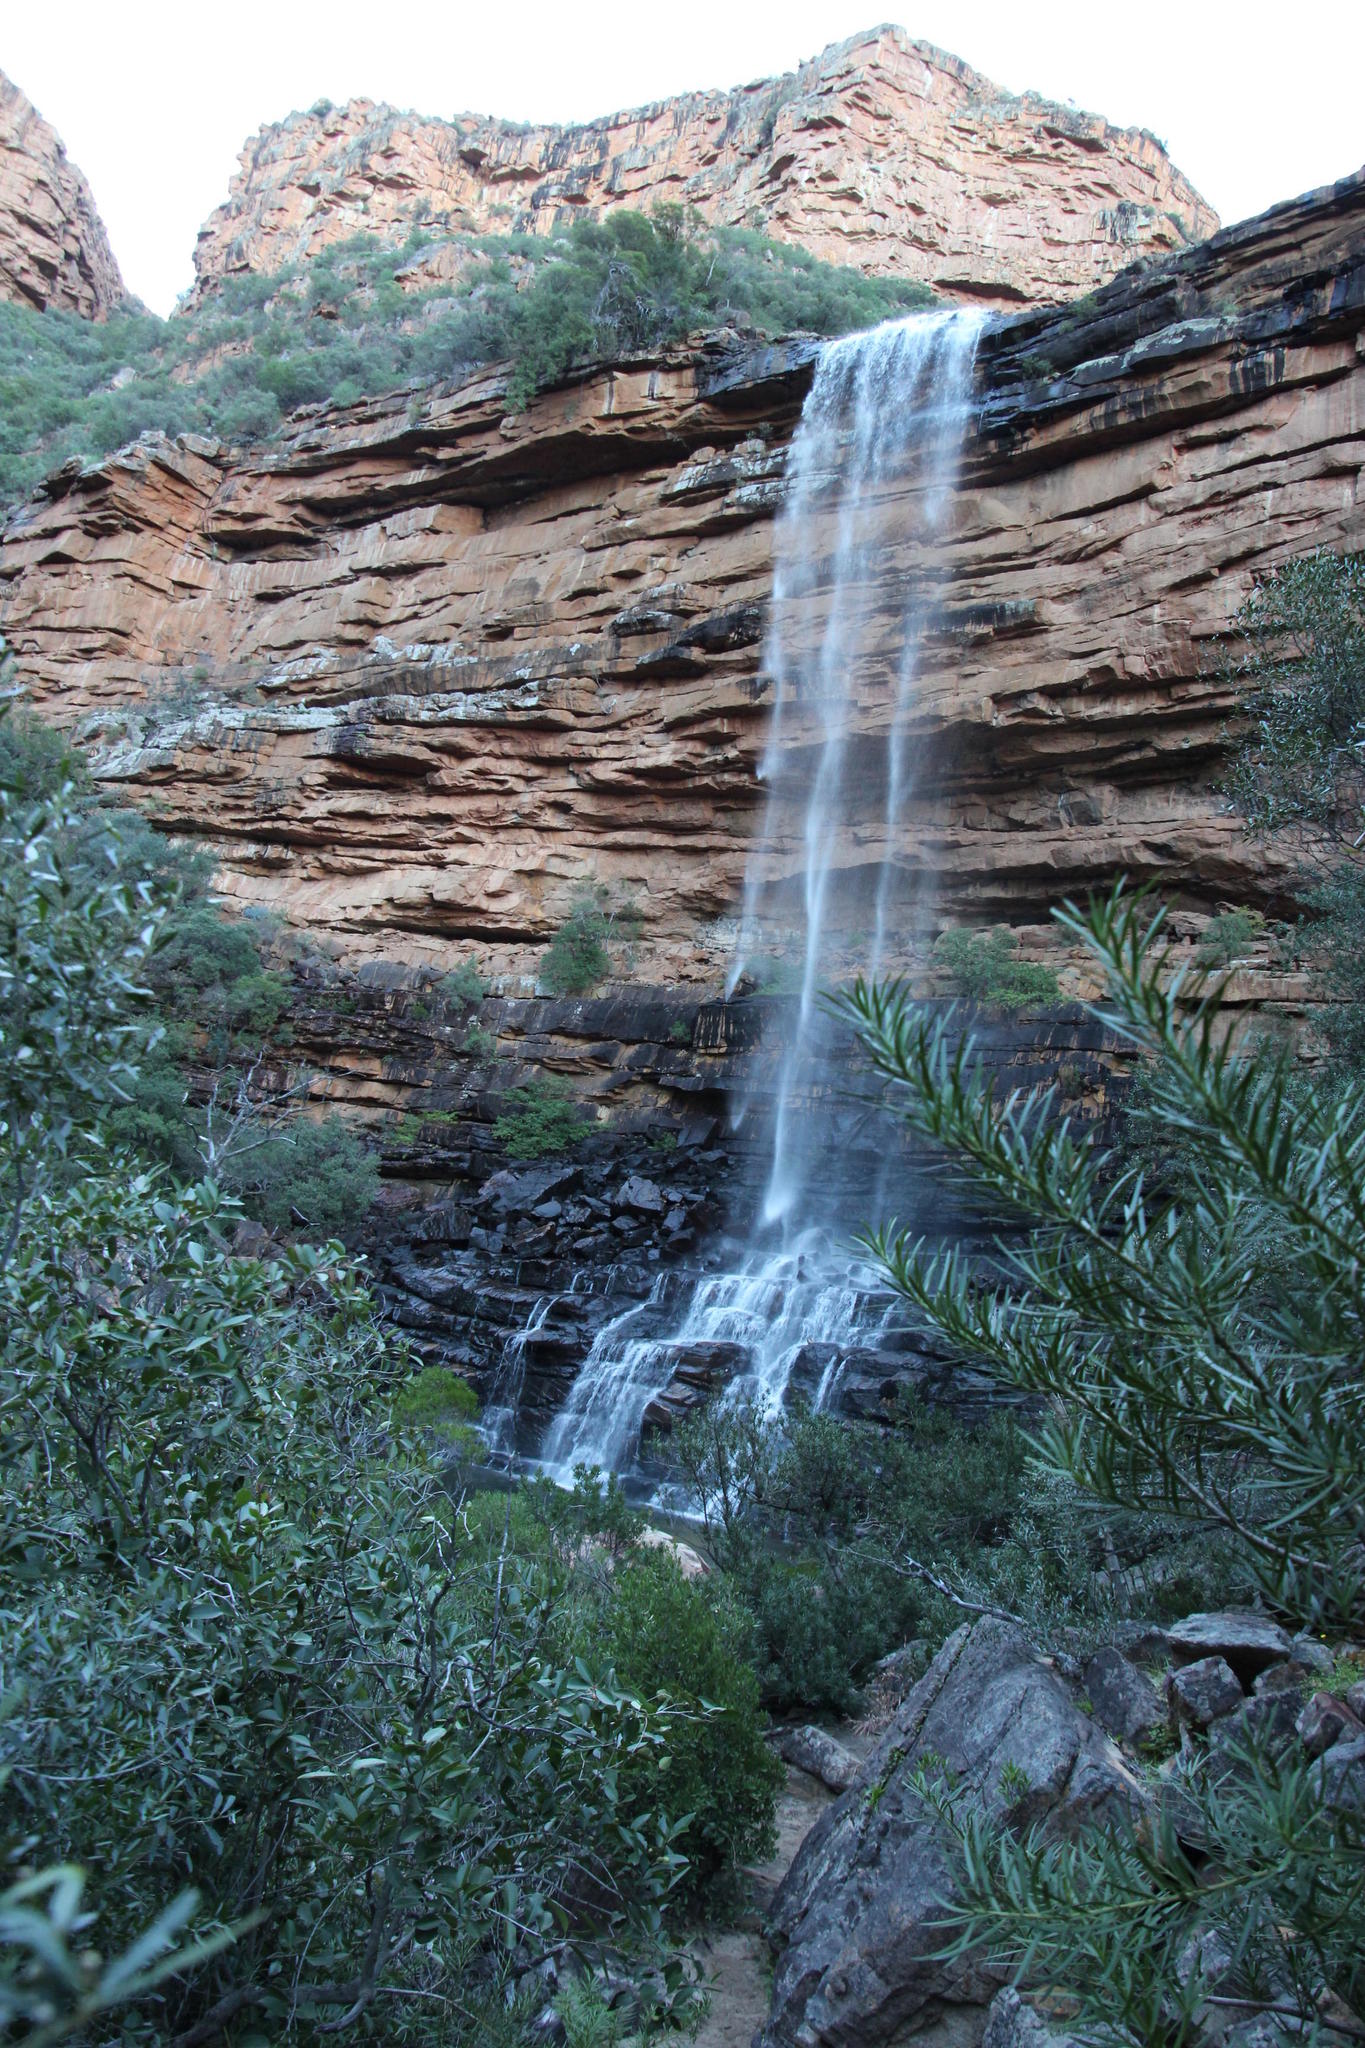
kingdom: Plantae
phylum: Tracheophyta
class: Magnoliopsida
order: Proteales
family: Proteaceae
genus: Brabejum
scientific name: Brabejum stellatifolium
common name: Wild almond
